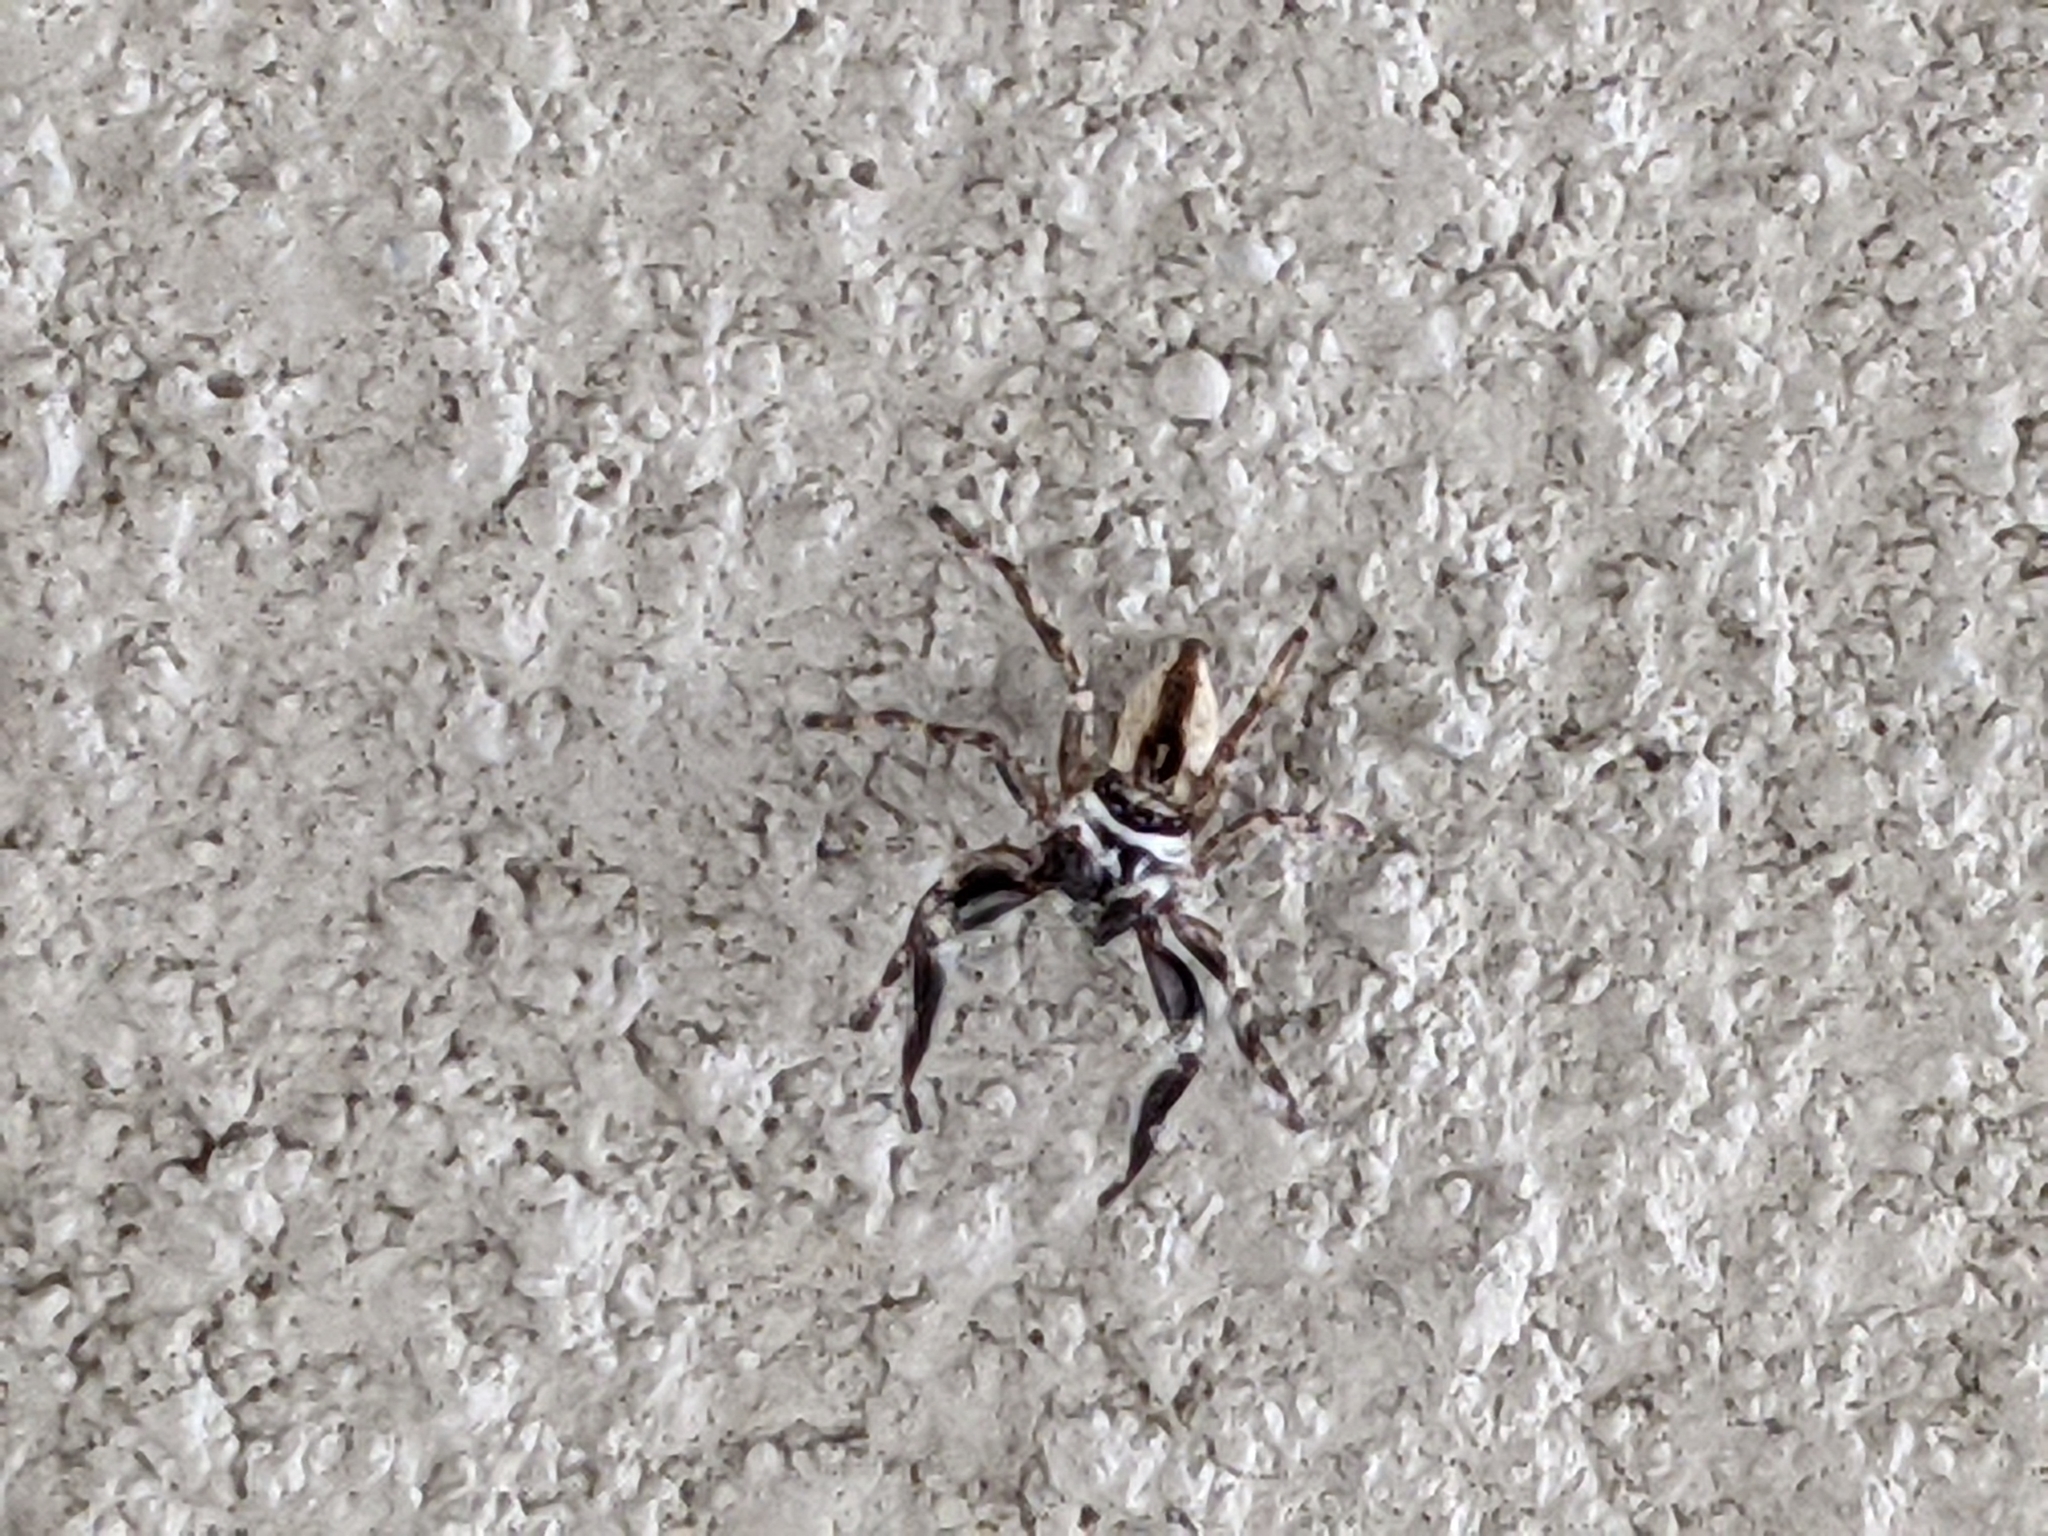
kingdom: Animalia
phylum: Arthropoda
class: Arachnida
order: Araneae
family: Salticidae
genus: Menemerus
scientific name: Menemerus bivittatus
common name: Gray wall jumper
